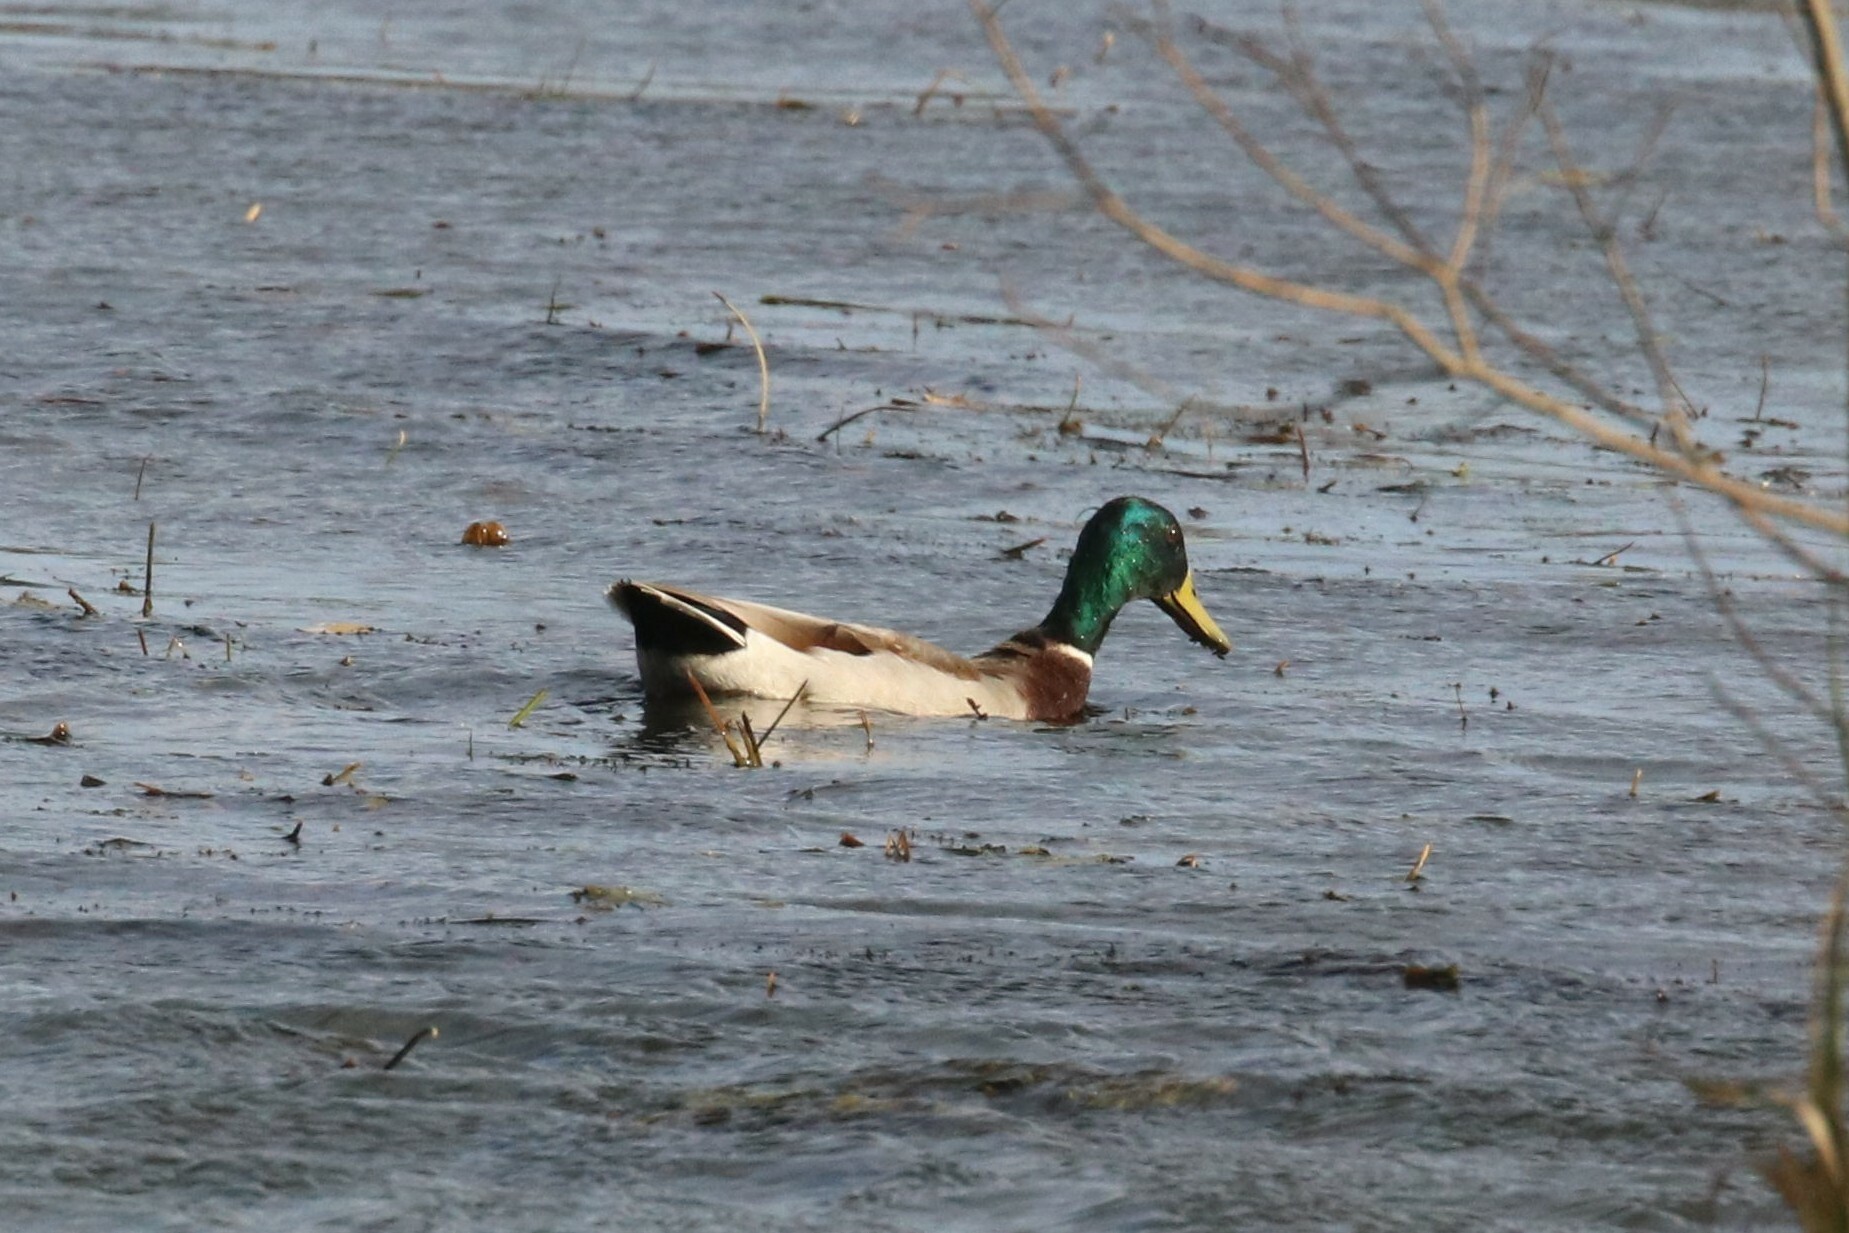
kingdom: Animalia
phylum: Chordata
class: Aves
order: Anseriformes
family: Anatidae
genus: Anas
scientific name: Anas platyrhynchos
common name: Mallard
